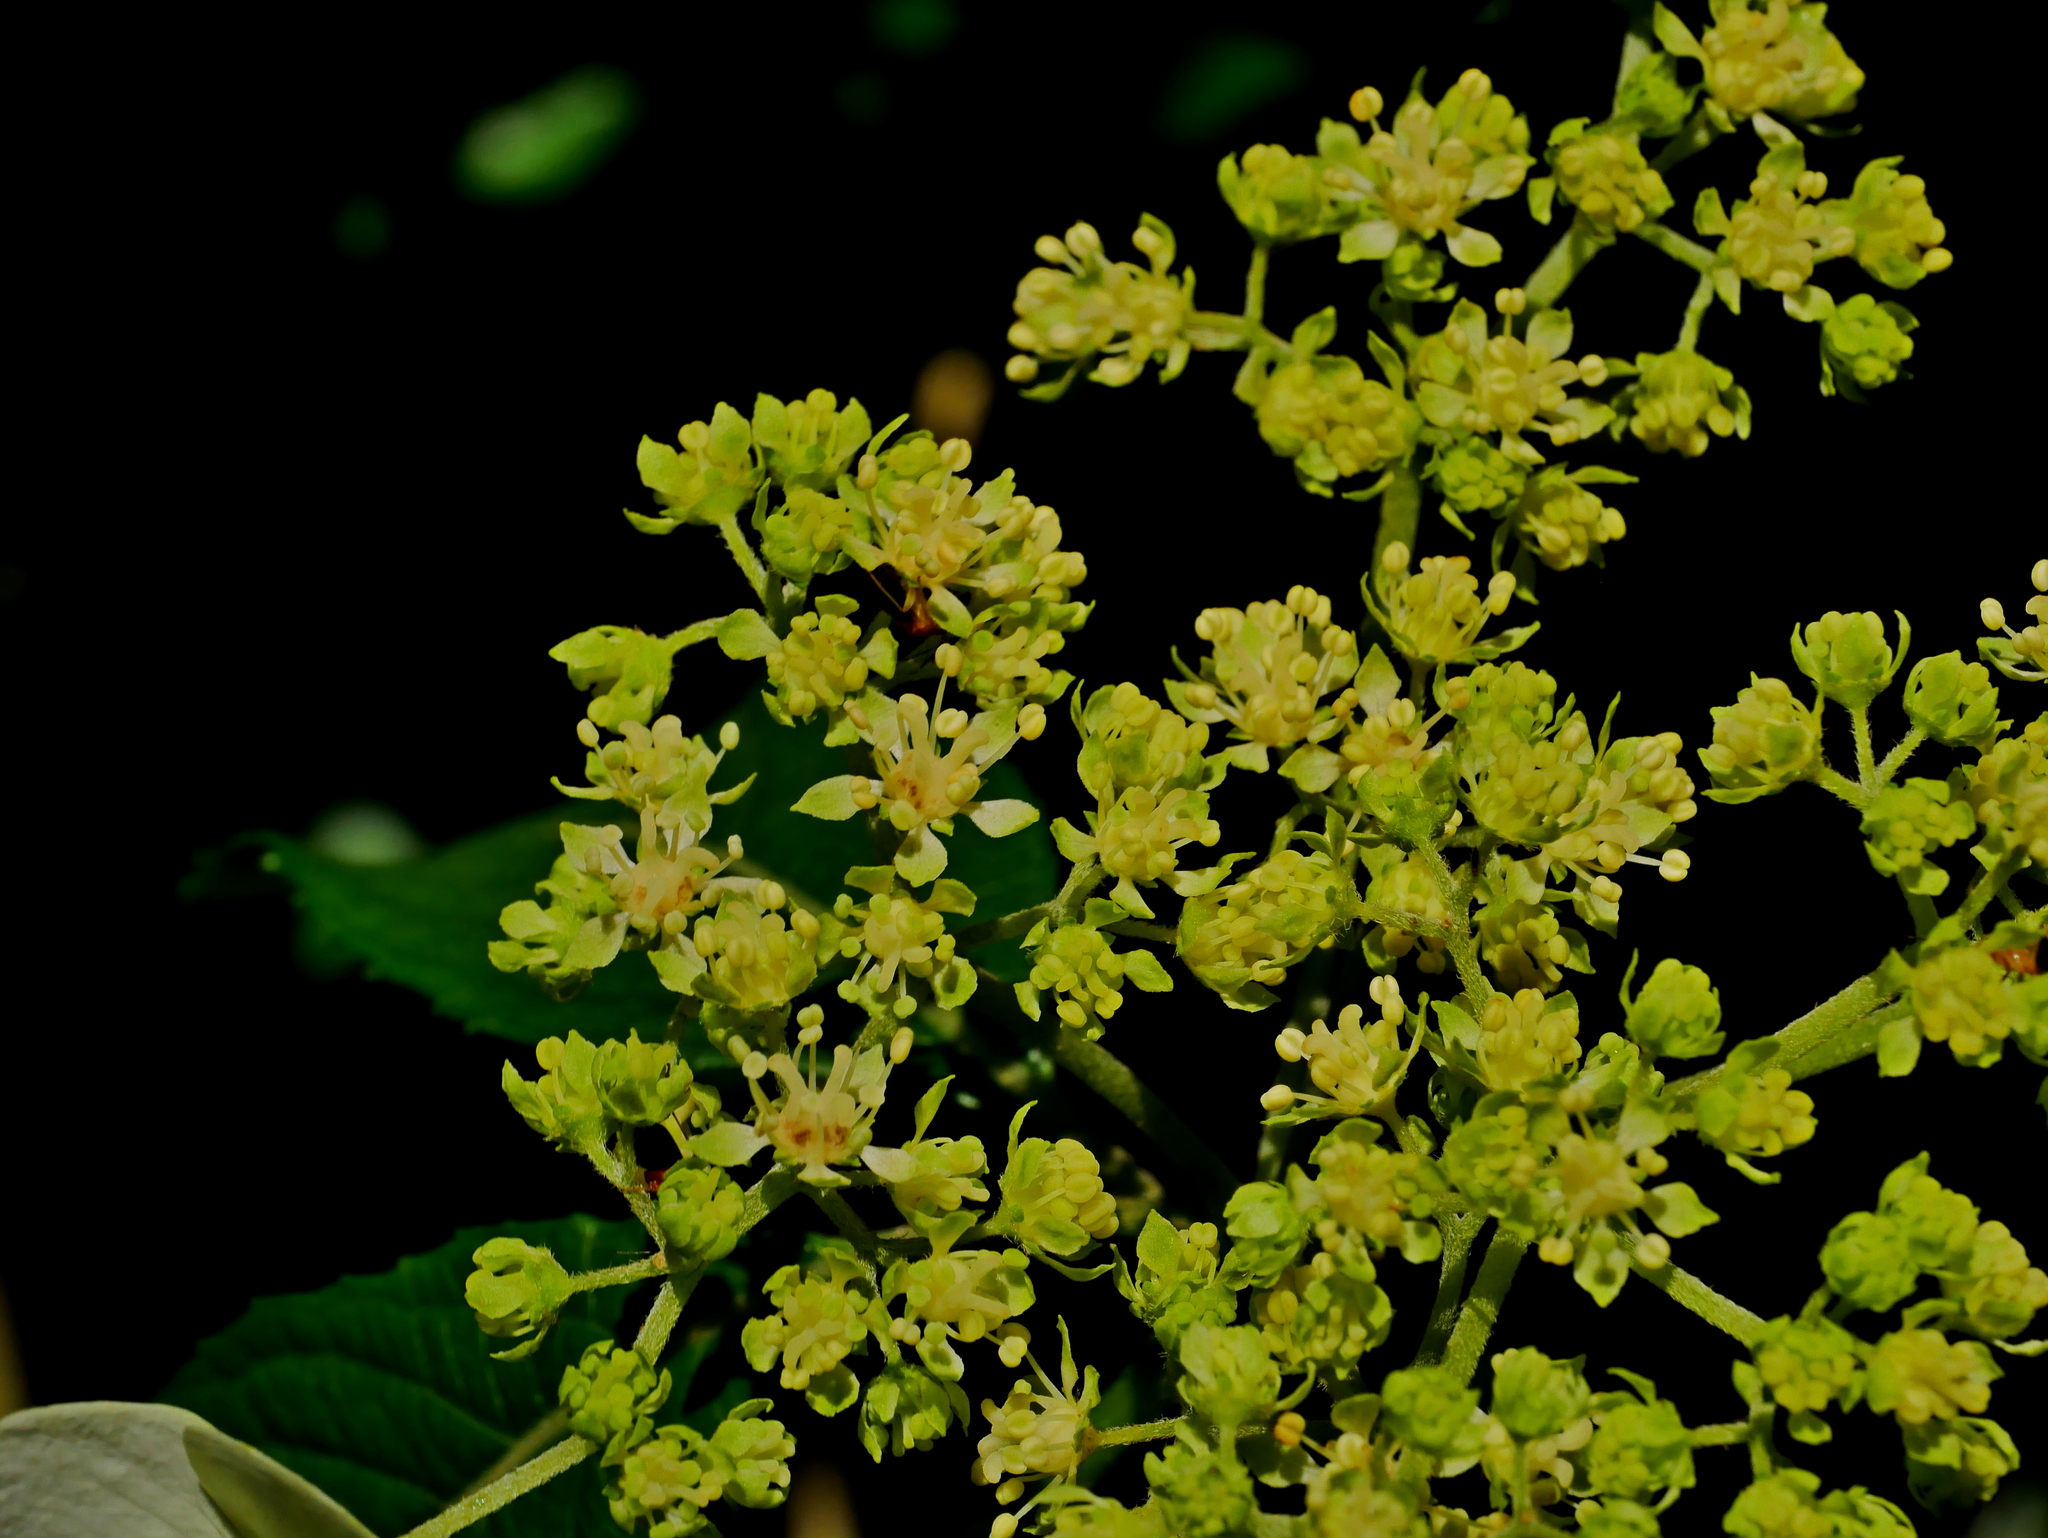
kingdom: Plantae
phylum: Tracheophyta
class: Magnoliopsida
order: Cornales
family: Hydrangeaceae
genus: Hydrangea
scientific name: Hydrangea chinensis
